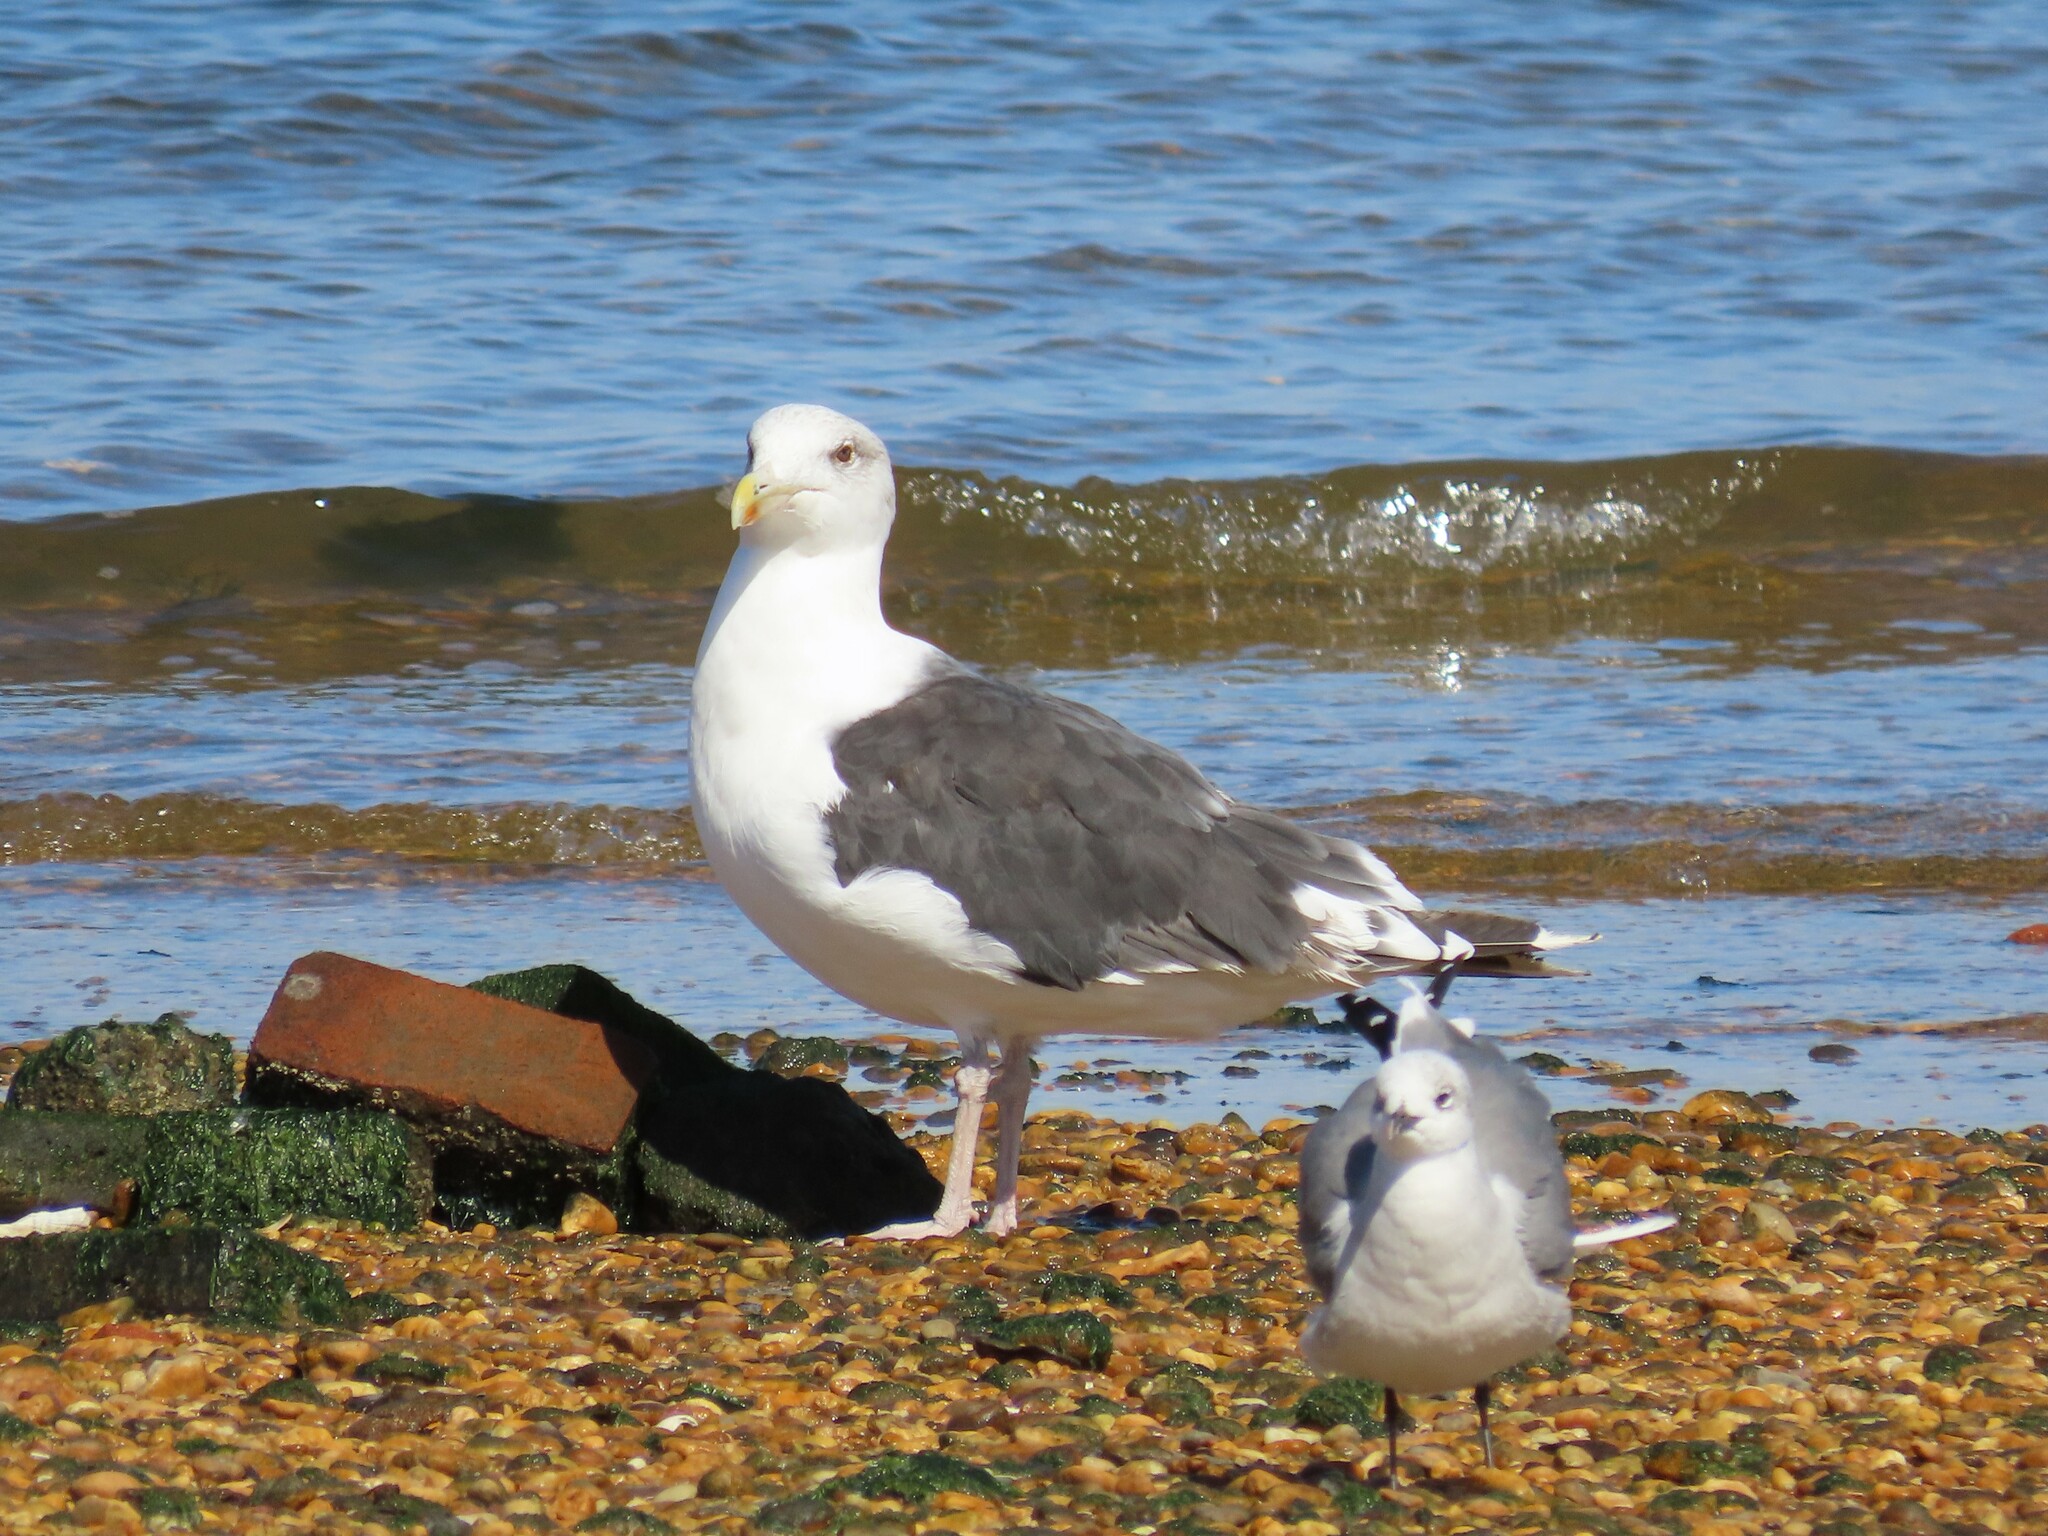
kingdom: Animalia
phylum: Chordata
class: Aves
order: Charadriiformes
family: Laridae
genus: Larus
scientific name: Larus marinus
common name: Great black-backed gull
